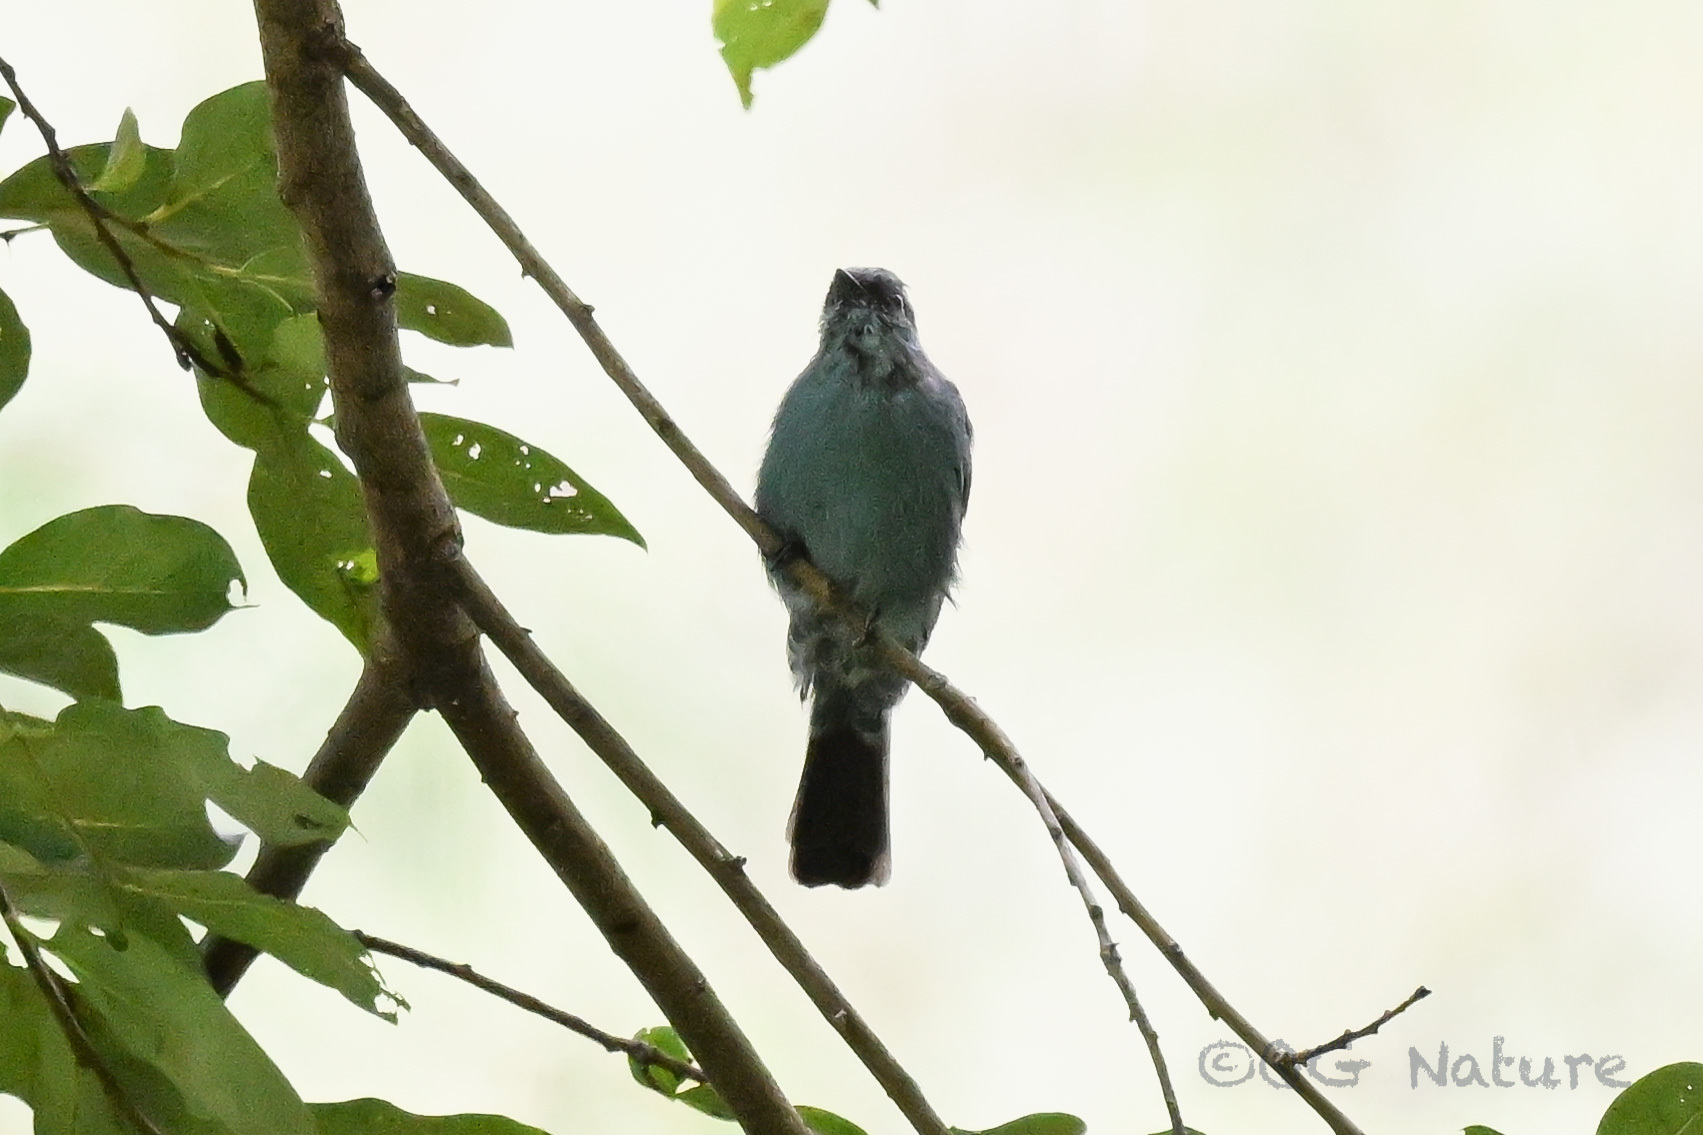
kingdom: Animalia
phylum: Chordata
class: Aves
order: Passeriformes
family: Muscicapidae
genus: Eumyias
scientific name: Eumyias thalassinus
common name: Verditer flycatcher
